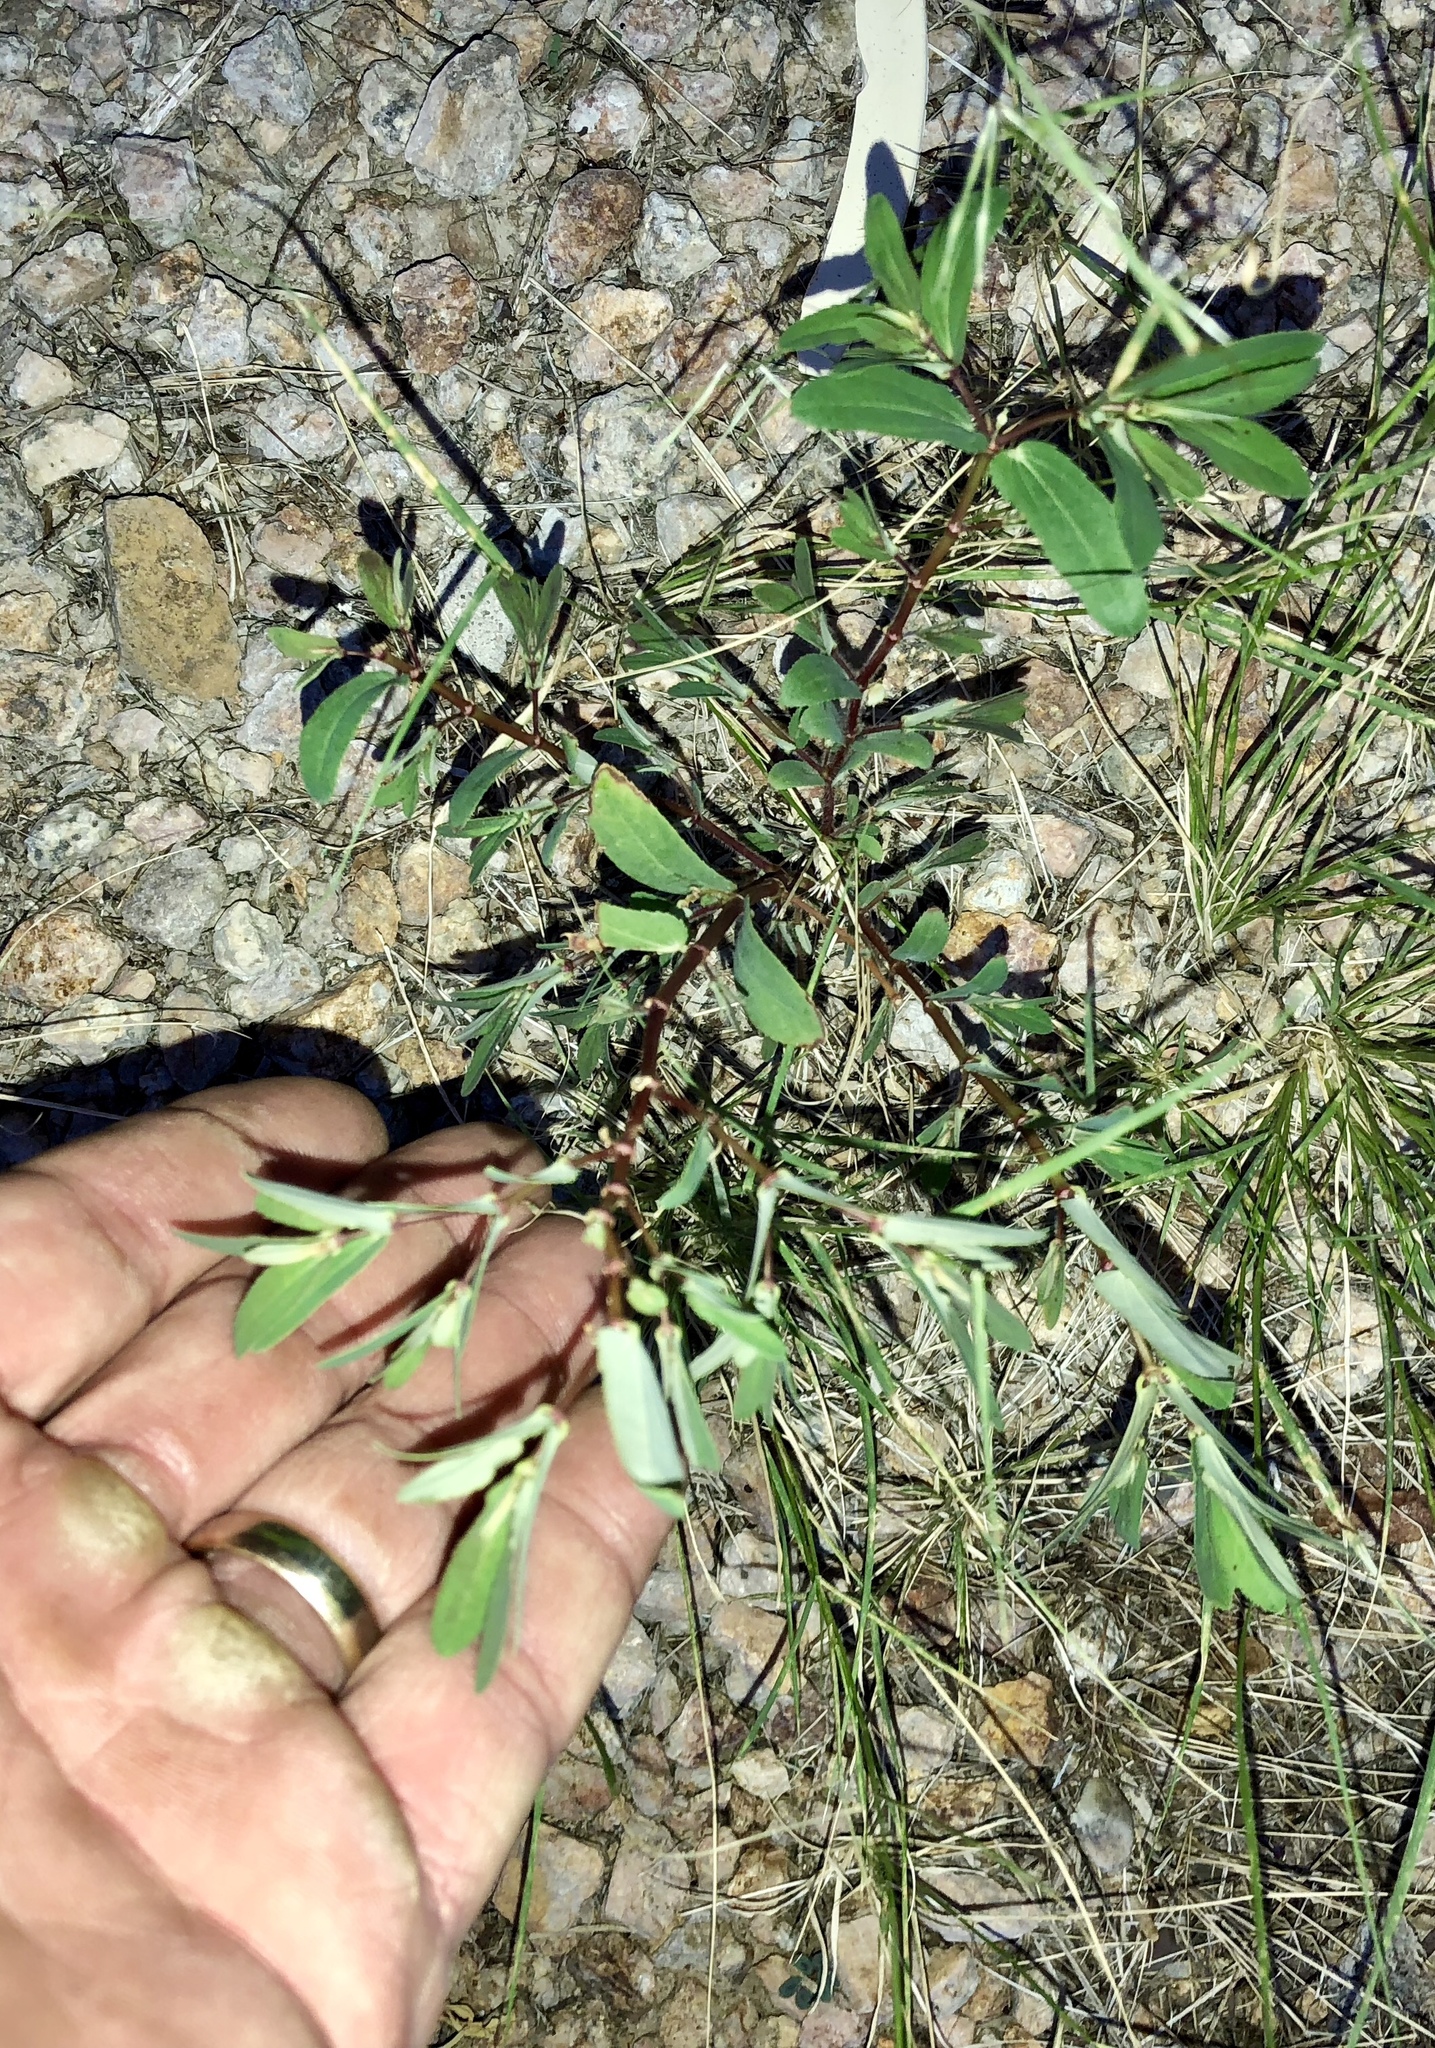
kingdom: Plantae
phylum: Tracheophyta
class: Magnoliopsida
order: Malpighiales
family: Euphorbiaceae
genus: Euphorbia
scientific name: Euphorbia hyssopifolia
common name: Hyssopleaf sandmat
